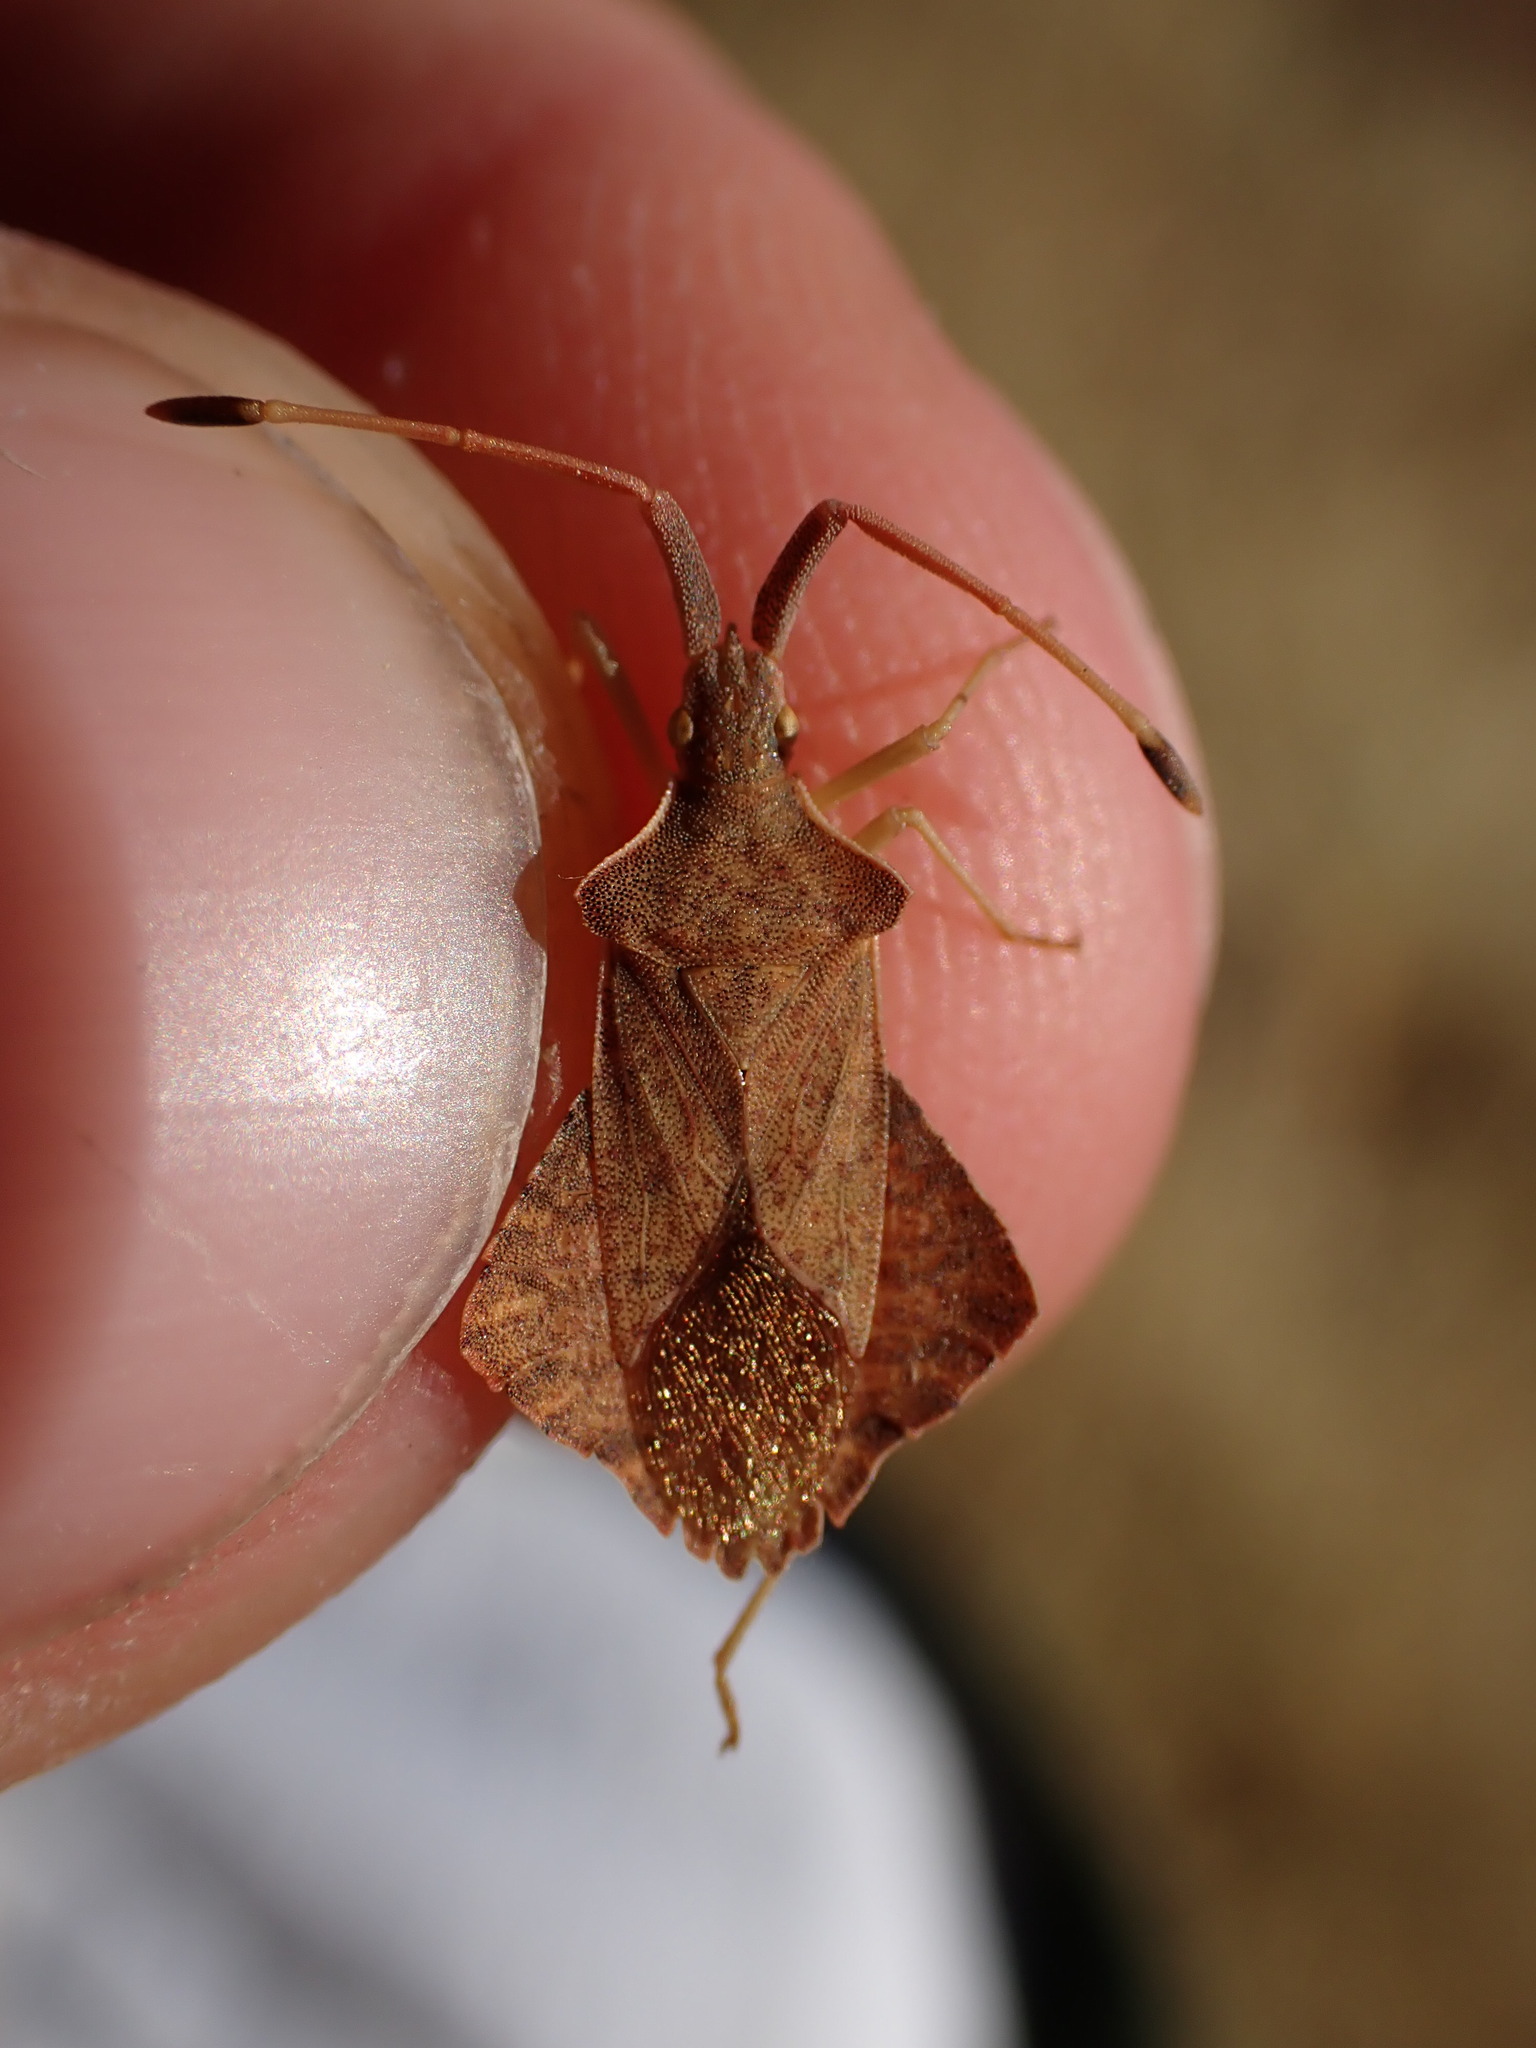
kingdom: Animalia
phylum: Arthropoda
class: Insecta
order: Hemiptera
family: Coreidae
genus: Syromastus
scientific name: Syromastus rhombeus
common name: Rhombic leatherbug
